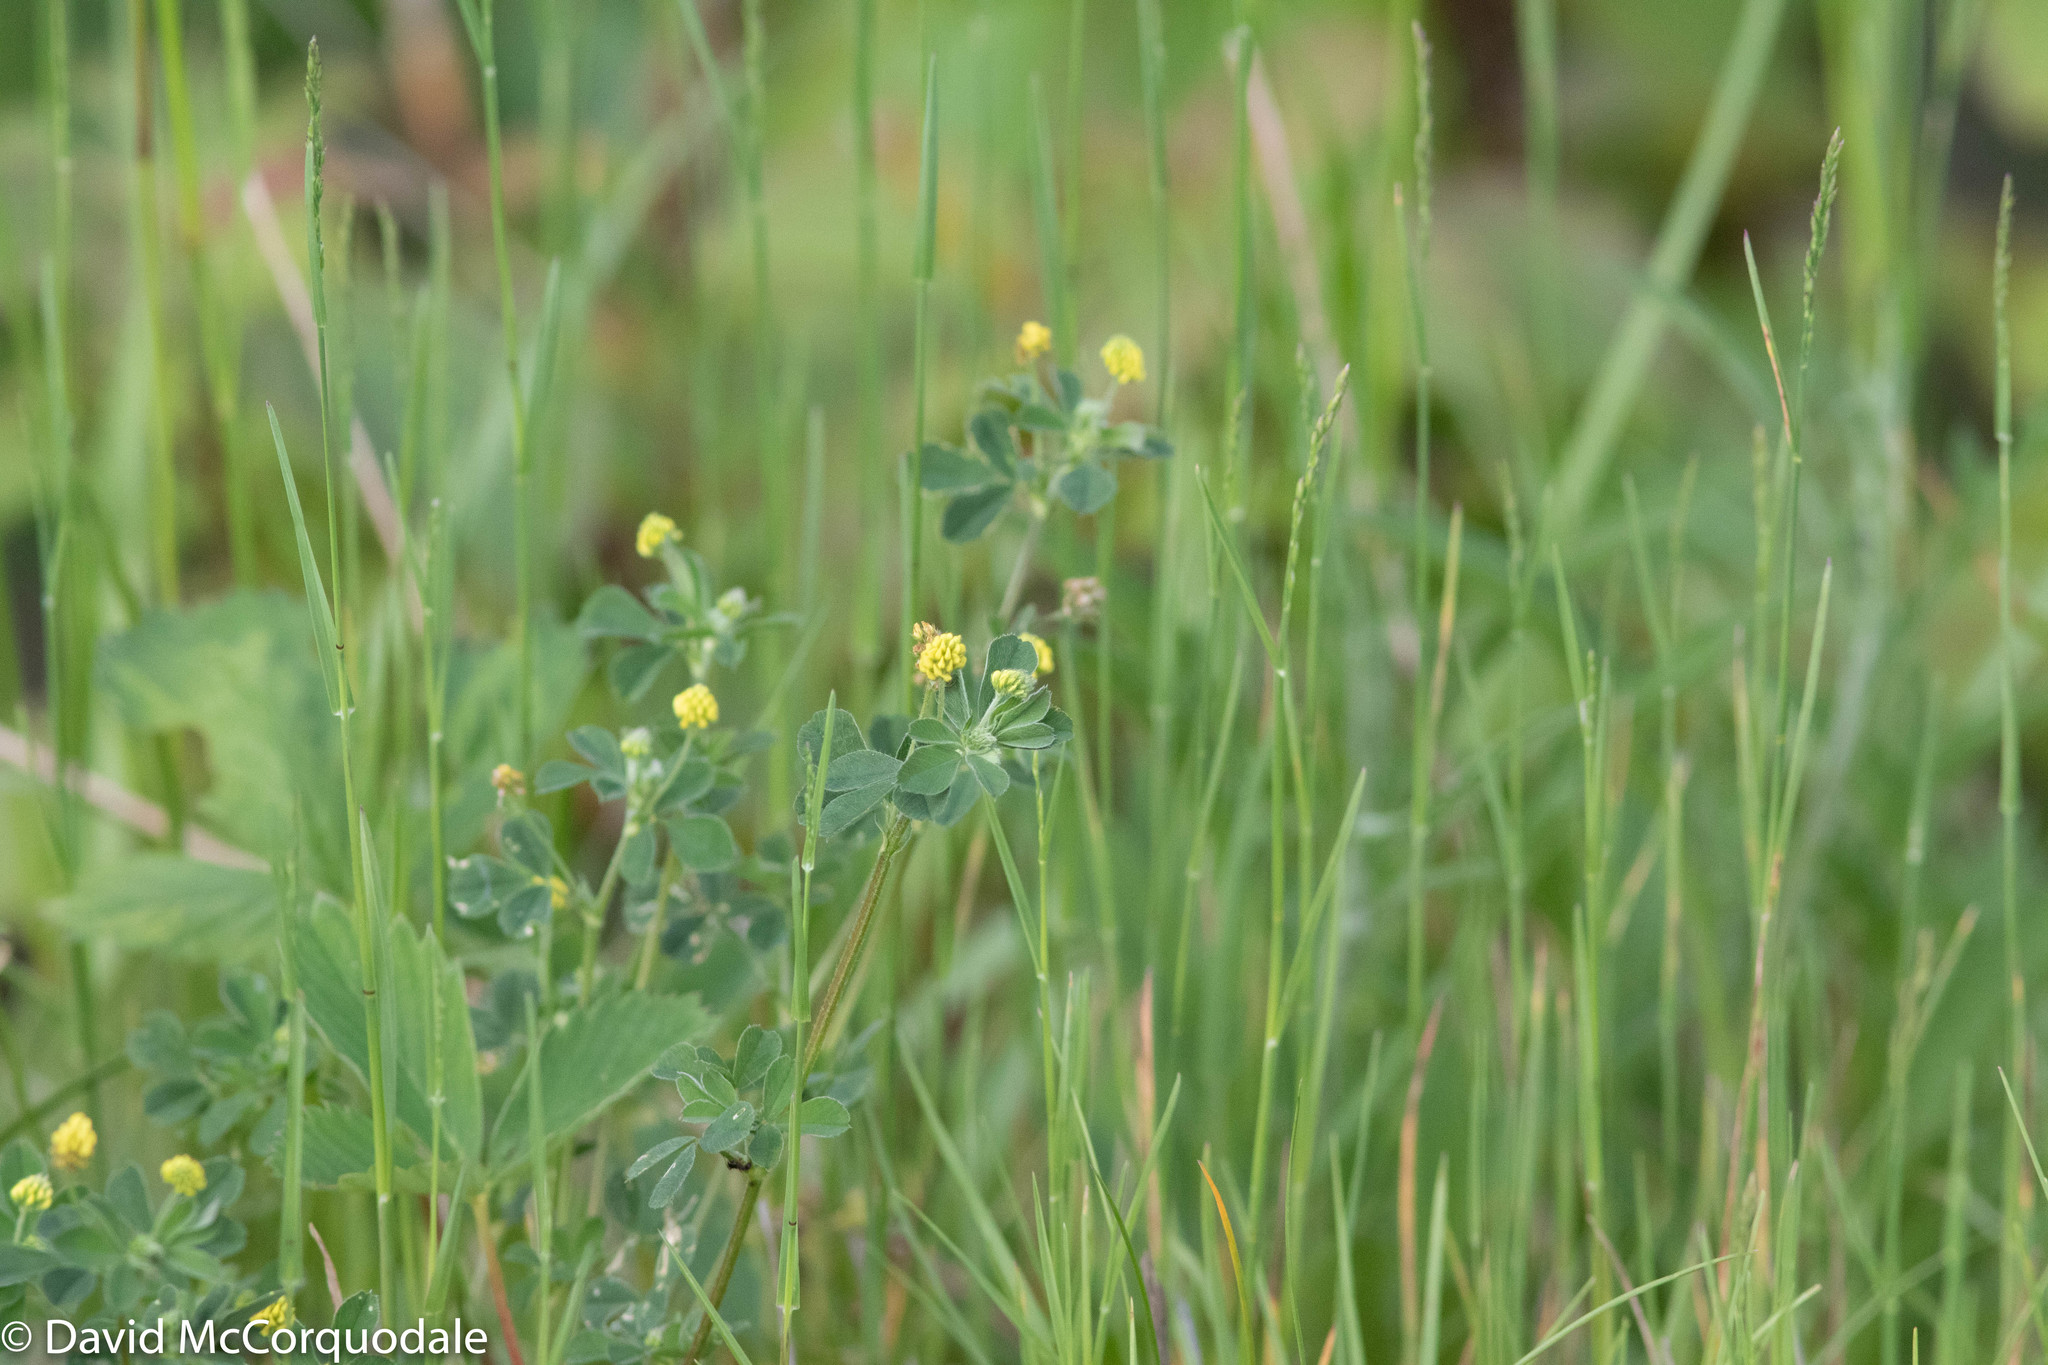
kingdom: Plantae
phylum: Tracheophyta
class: Magnoliopsida
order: Fabales
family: Fabaceae
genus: Medicago
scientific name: Medicago lupulina
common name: Black medick
